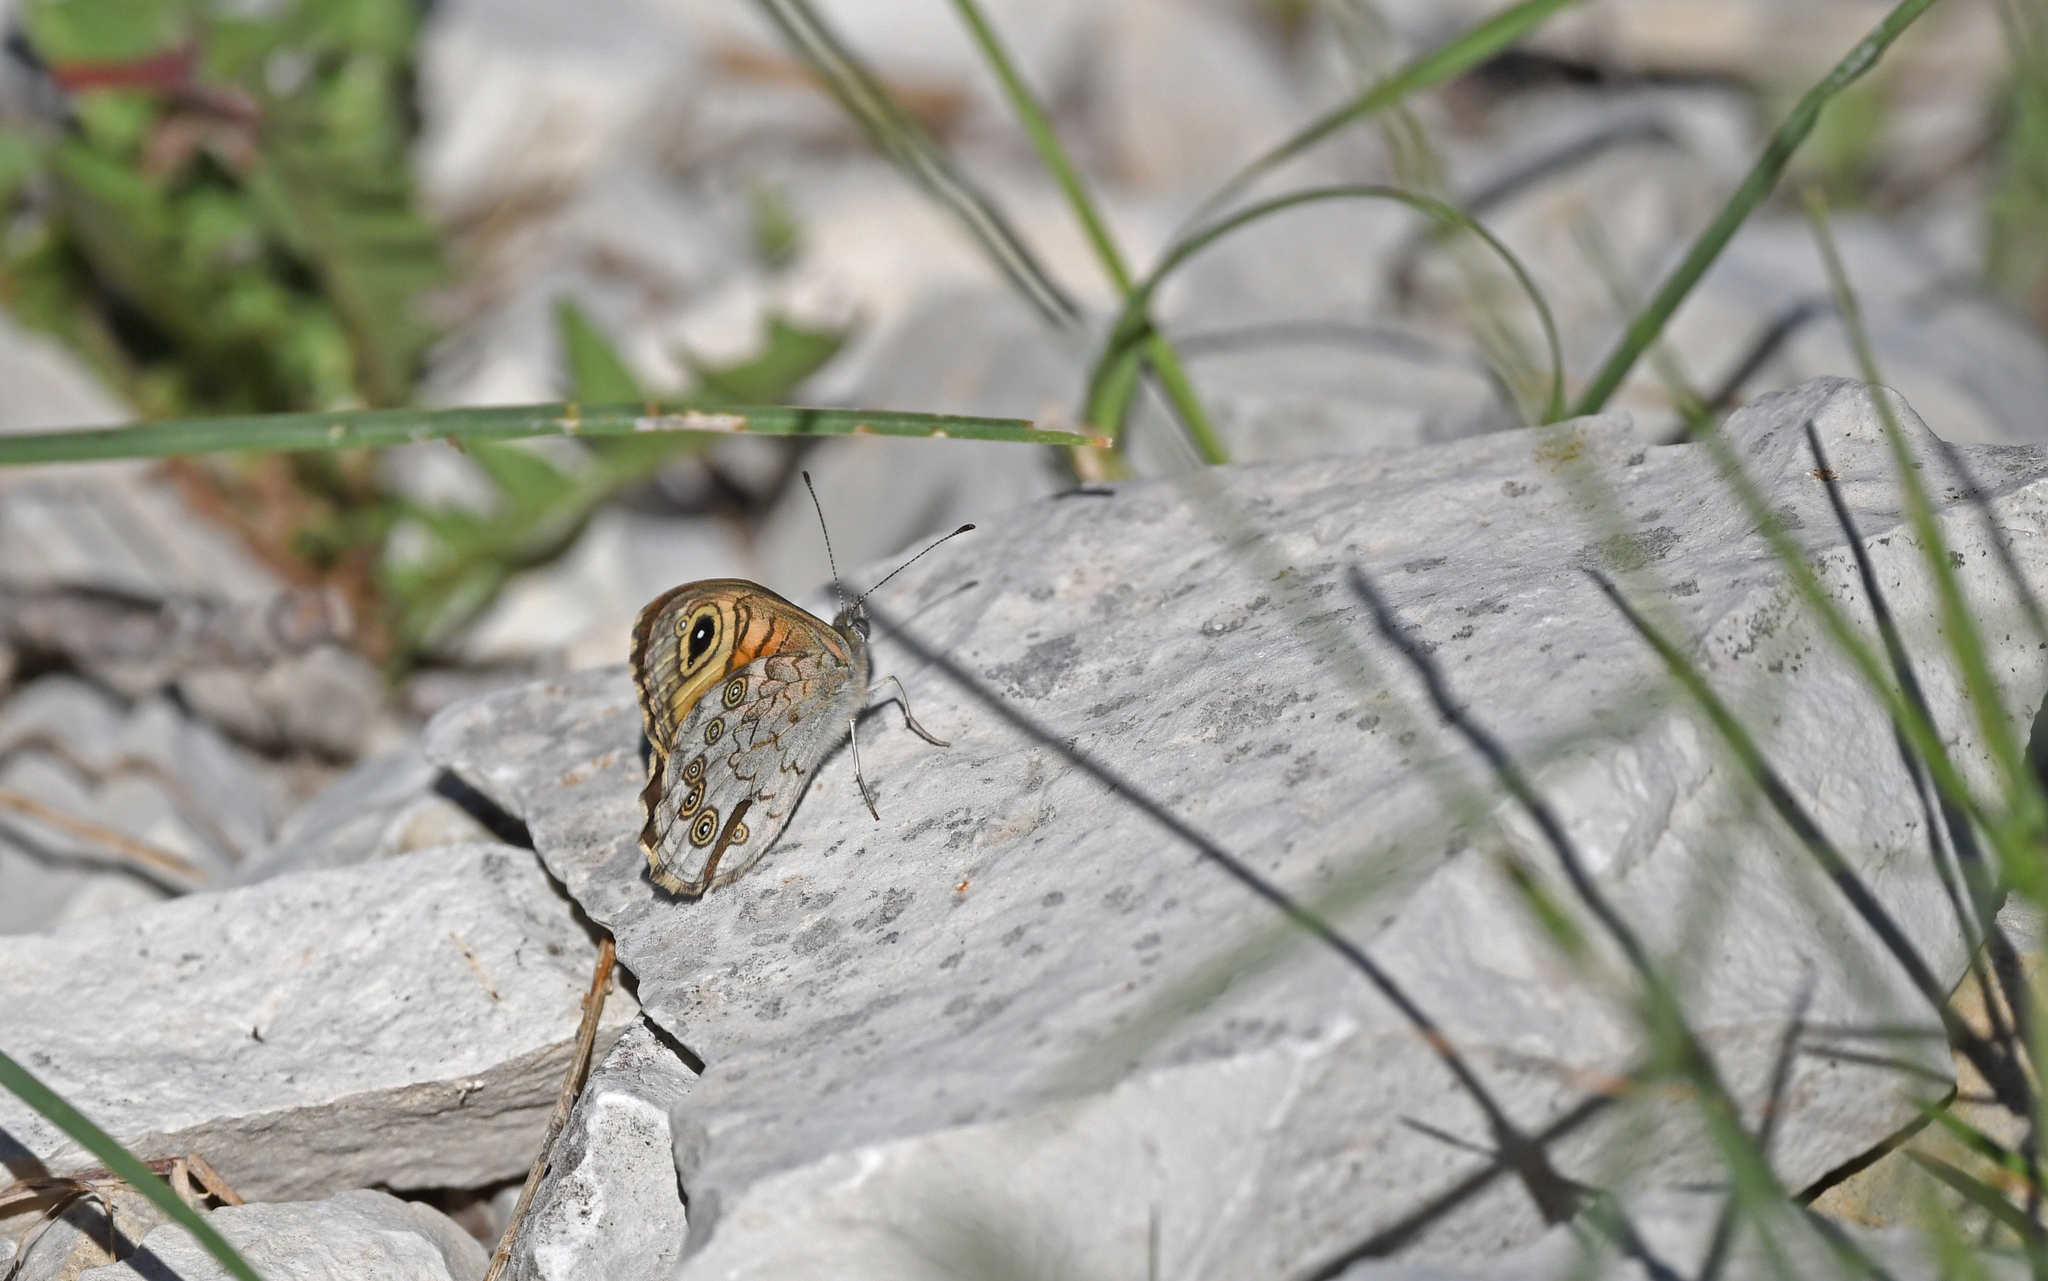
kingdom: Animalia
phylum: Arthropoda
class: Insecta
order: Lepidoptera
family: Nymphalidae
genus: Pararge
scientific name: Pararge Lasiommata maera
